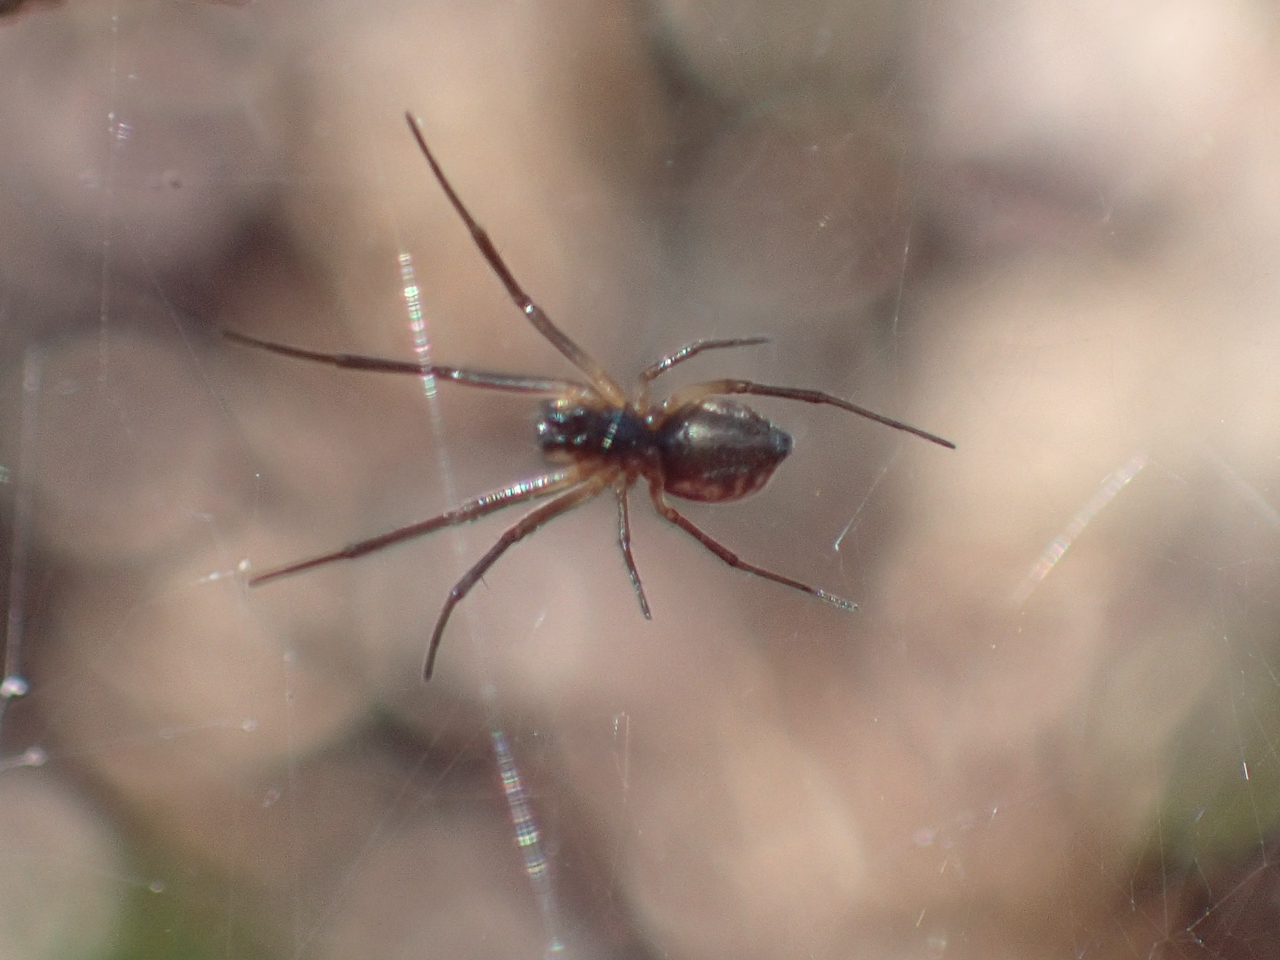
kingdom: Animalia
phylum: Arthropoda
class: Arachnida
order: Araneae
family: Linyphiidae
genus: Frontinella
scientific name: Frontinella pyramitela
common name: Bowl-and-doily spider
